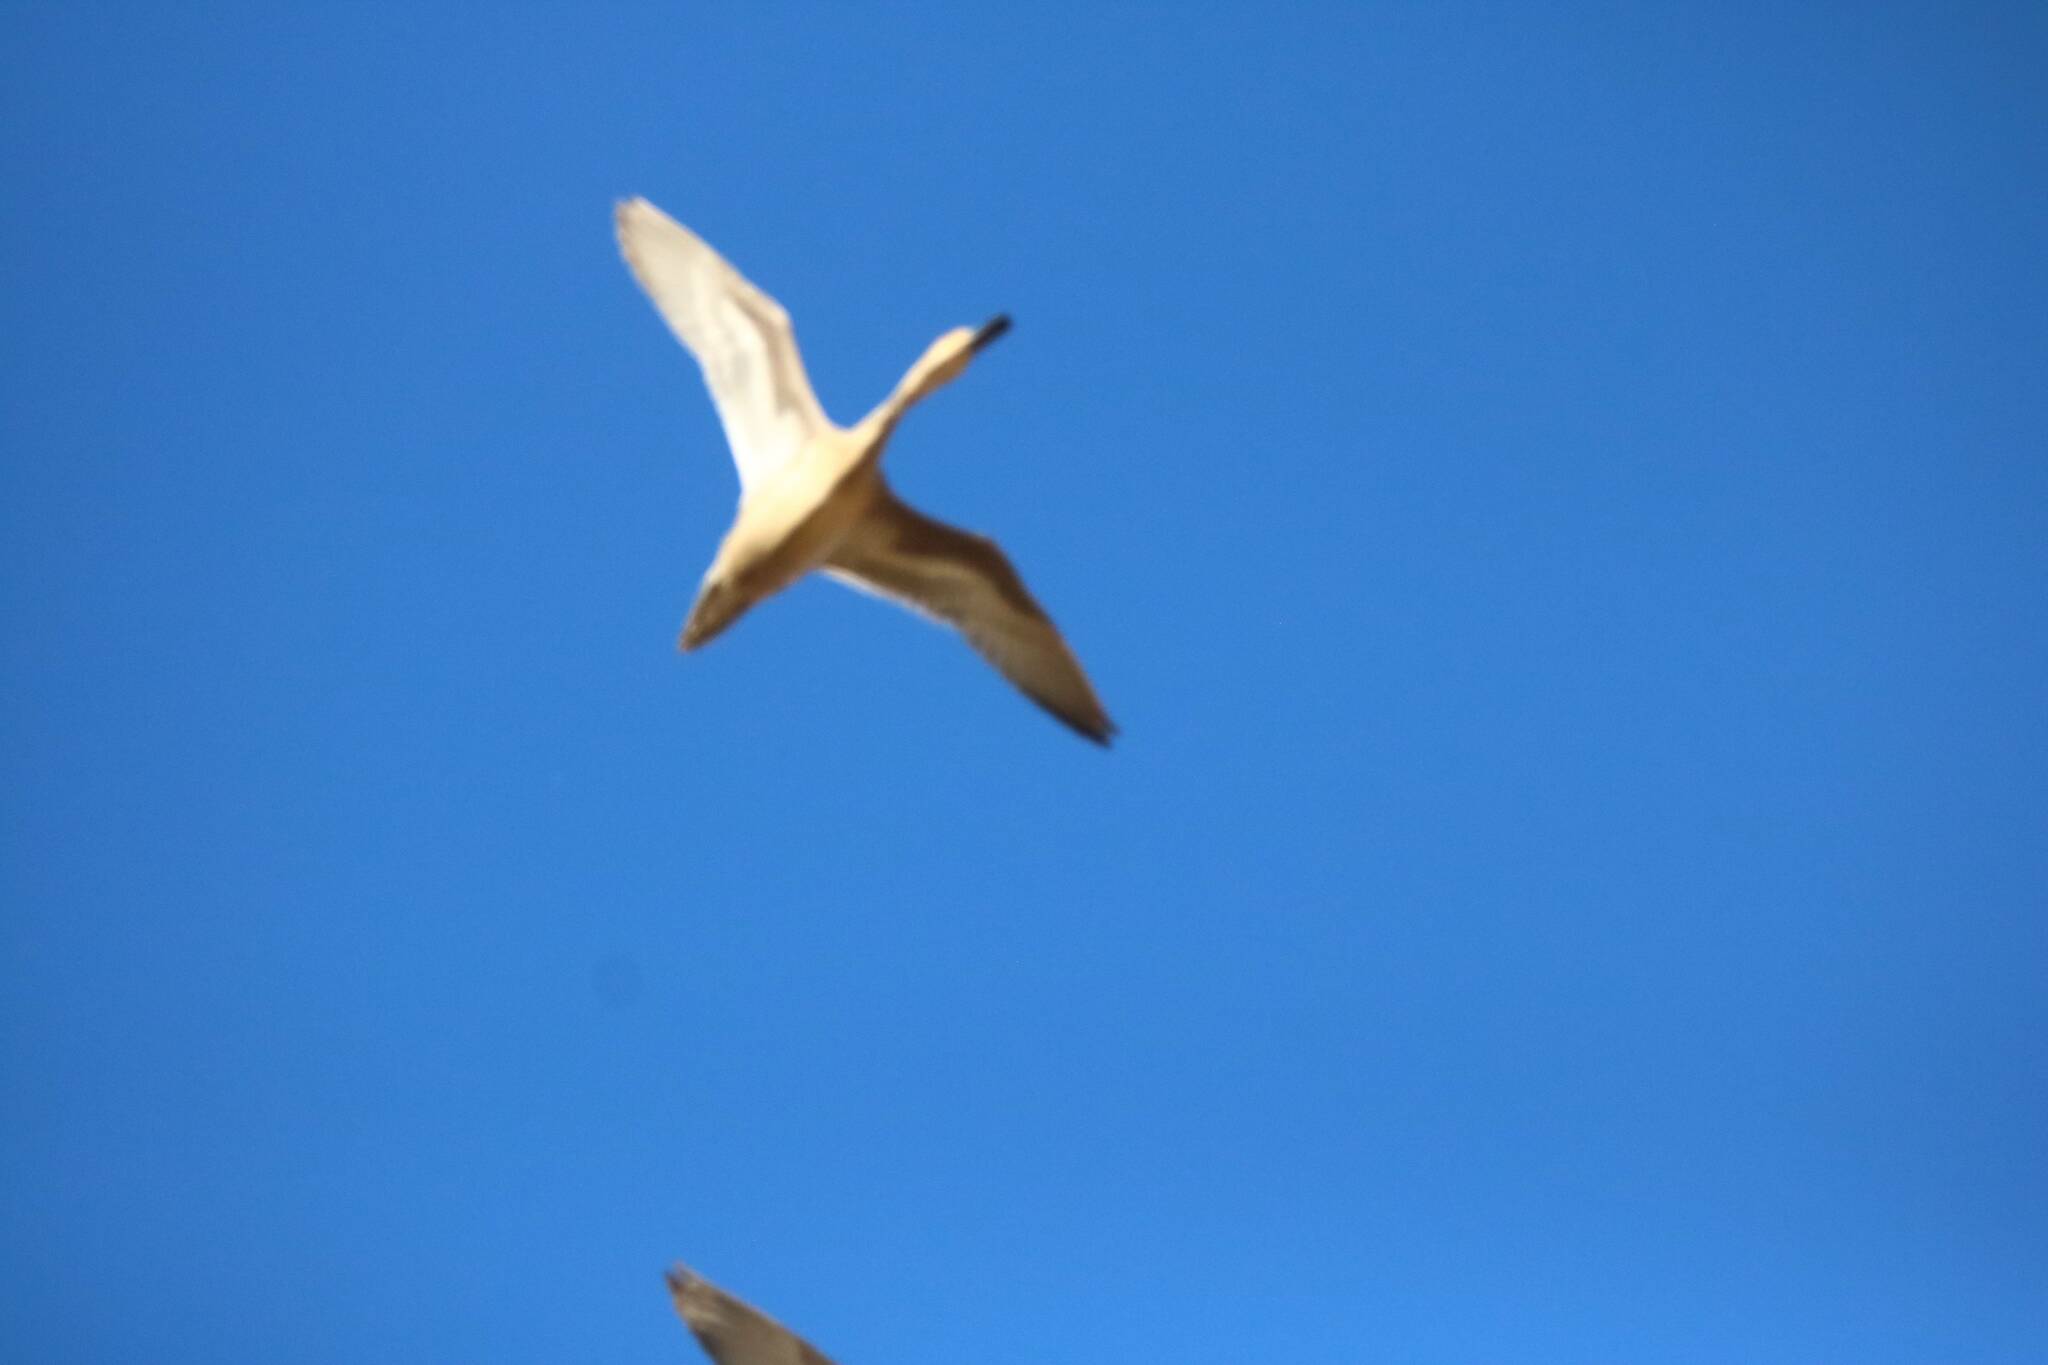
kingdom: Animalia
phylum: Chordata
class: Aves
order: Anseriformes
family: Anatidae
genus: Anas
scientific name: Anas acuta
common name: Northern pintail
